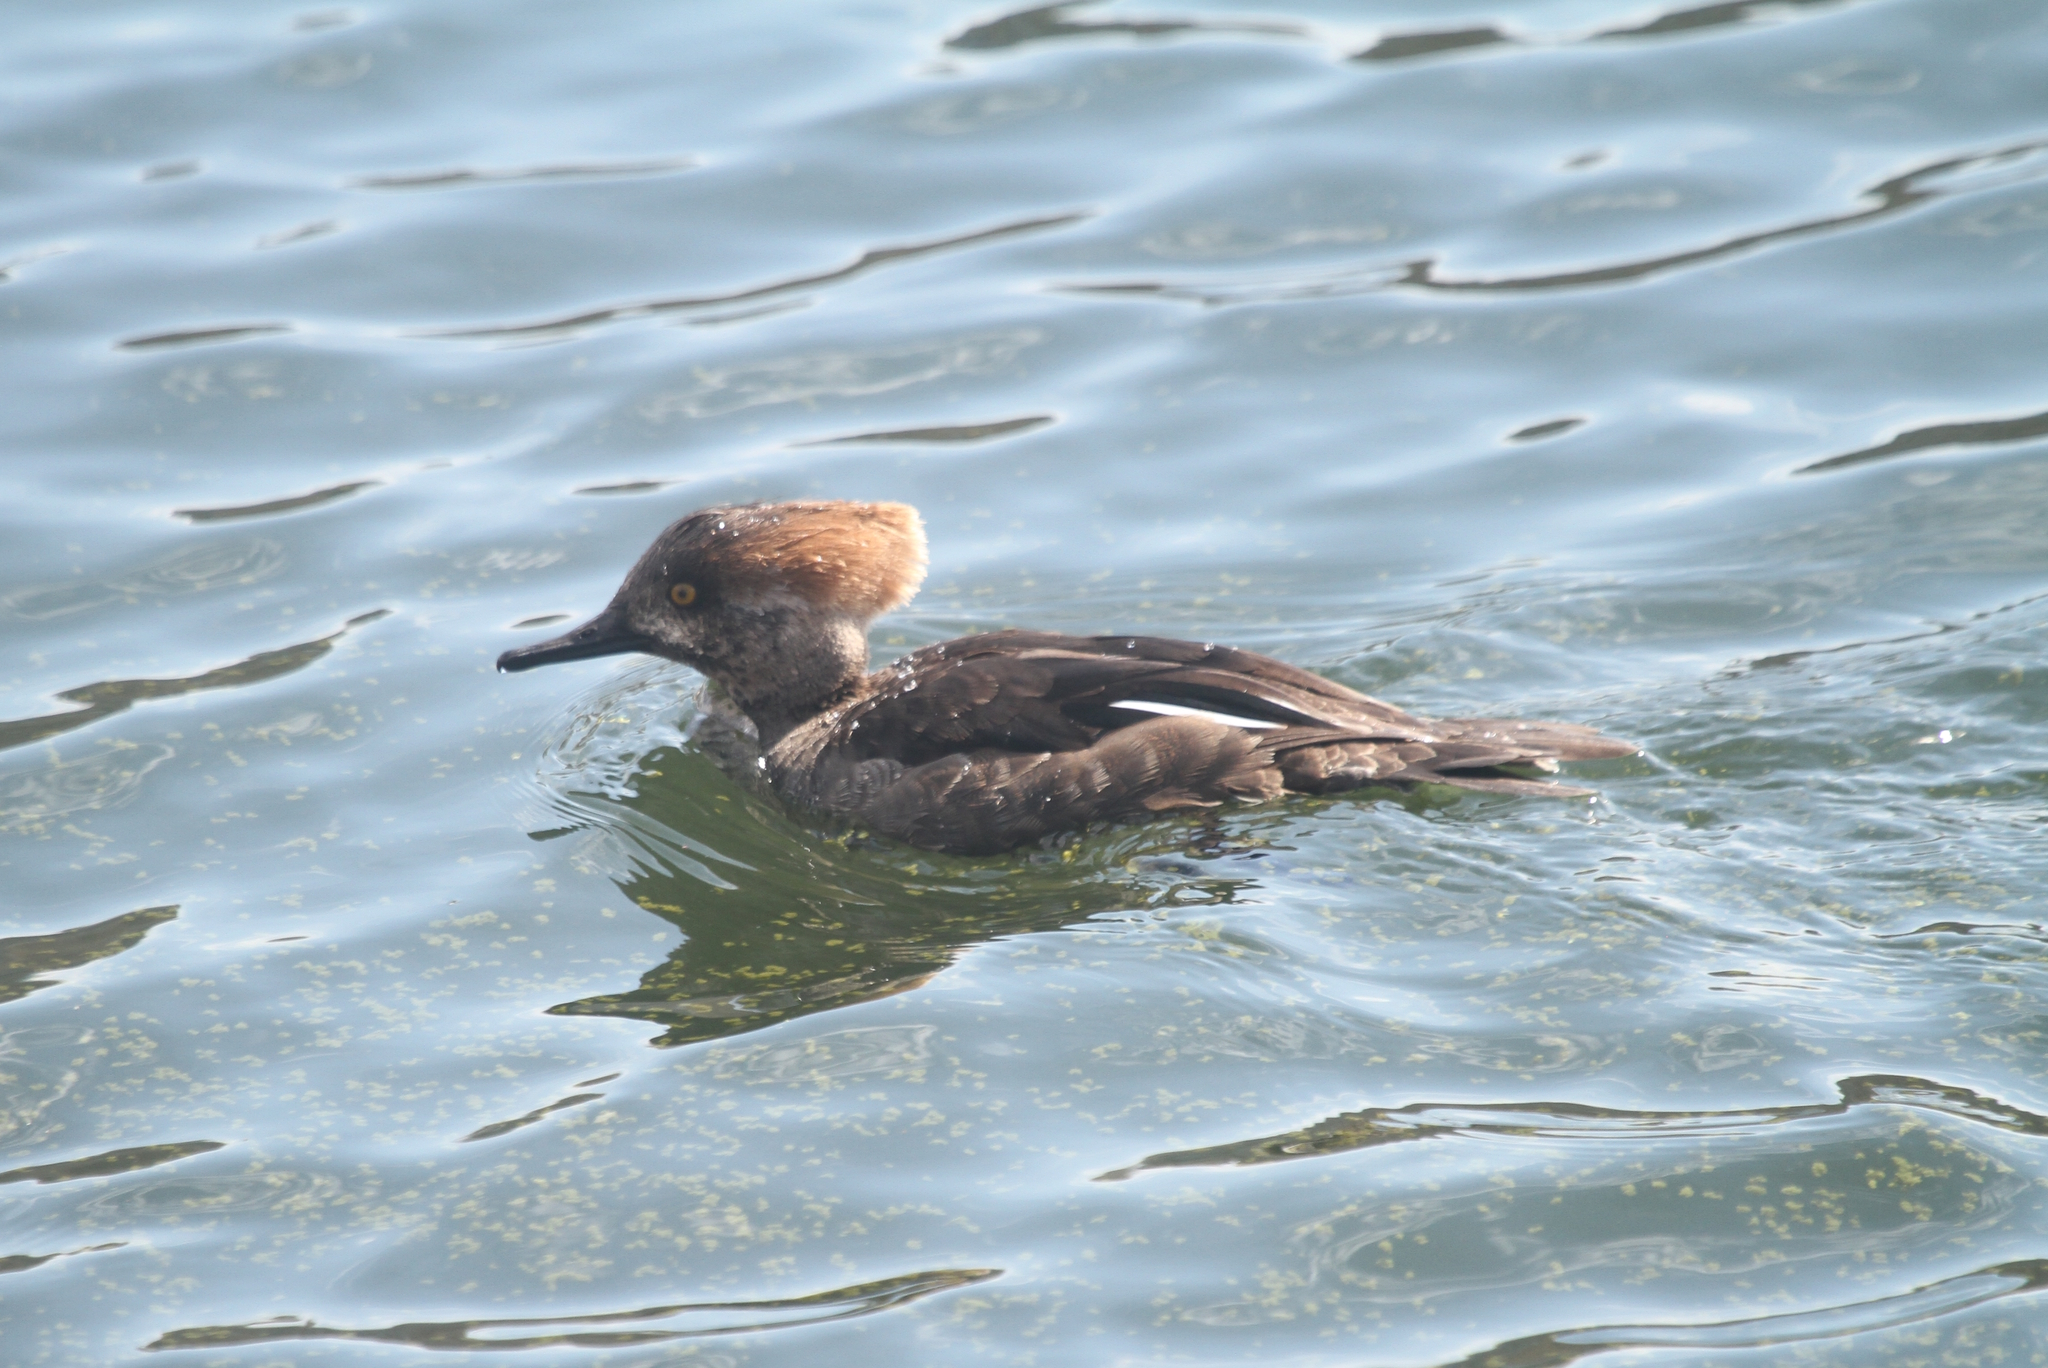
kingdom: Animalia
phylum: Chordata
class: Aves
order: Anseriformes
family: Anatidae
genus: Lophodytes
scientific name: Lophodytes cucullatus
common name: Hooded merganser
